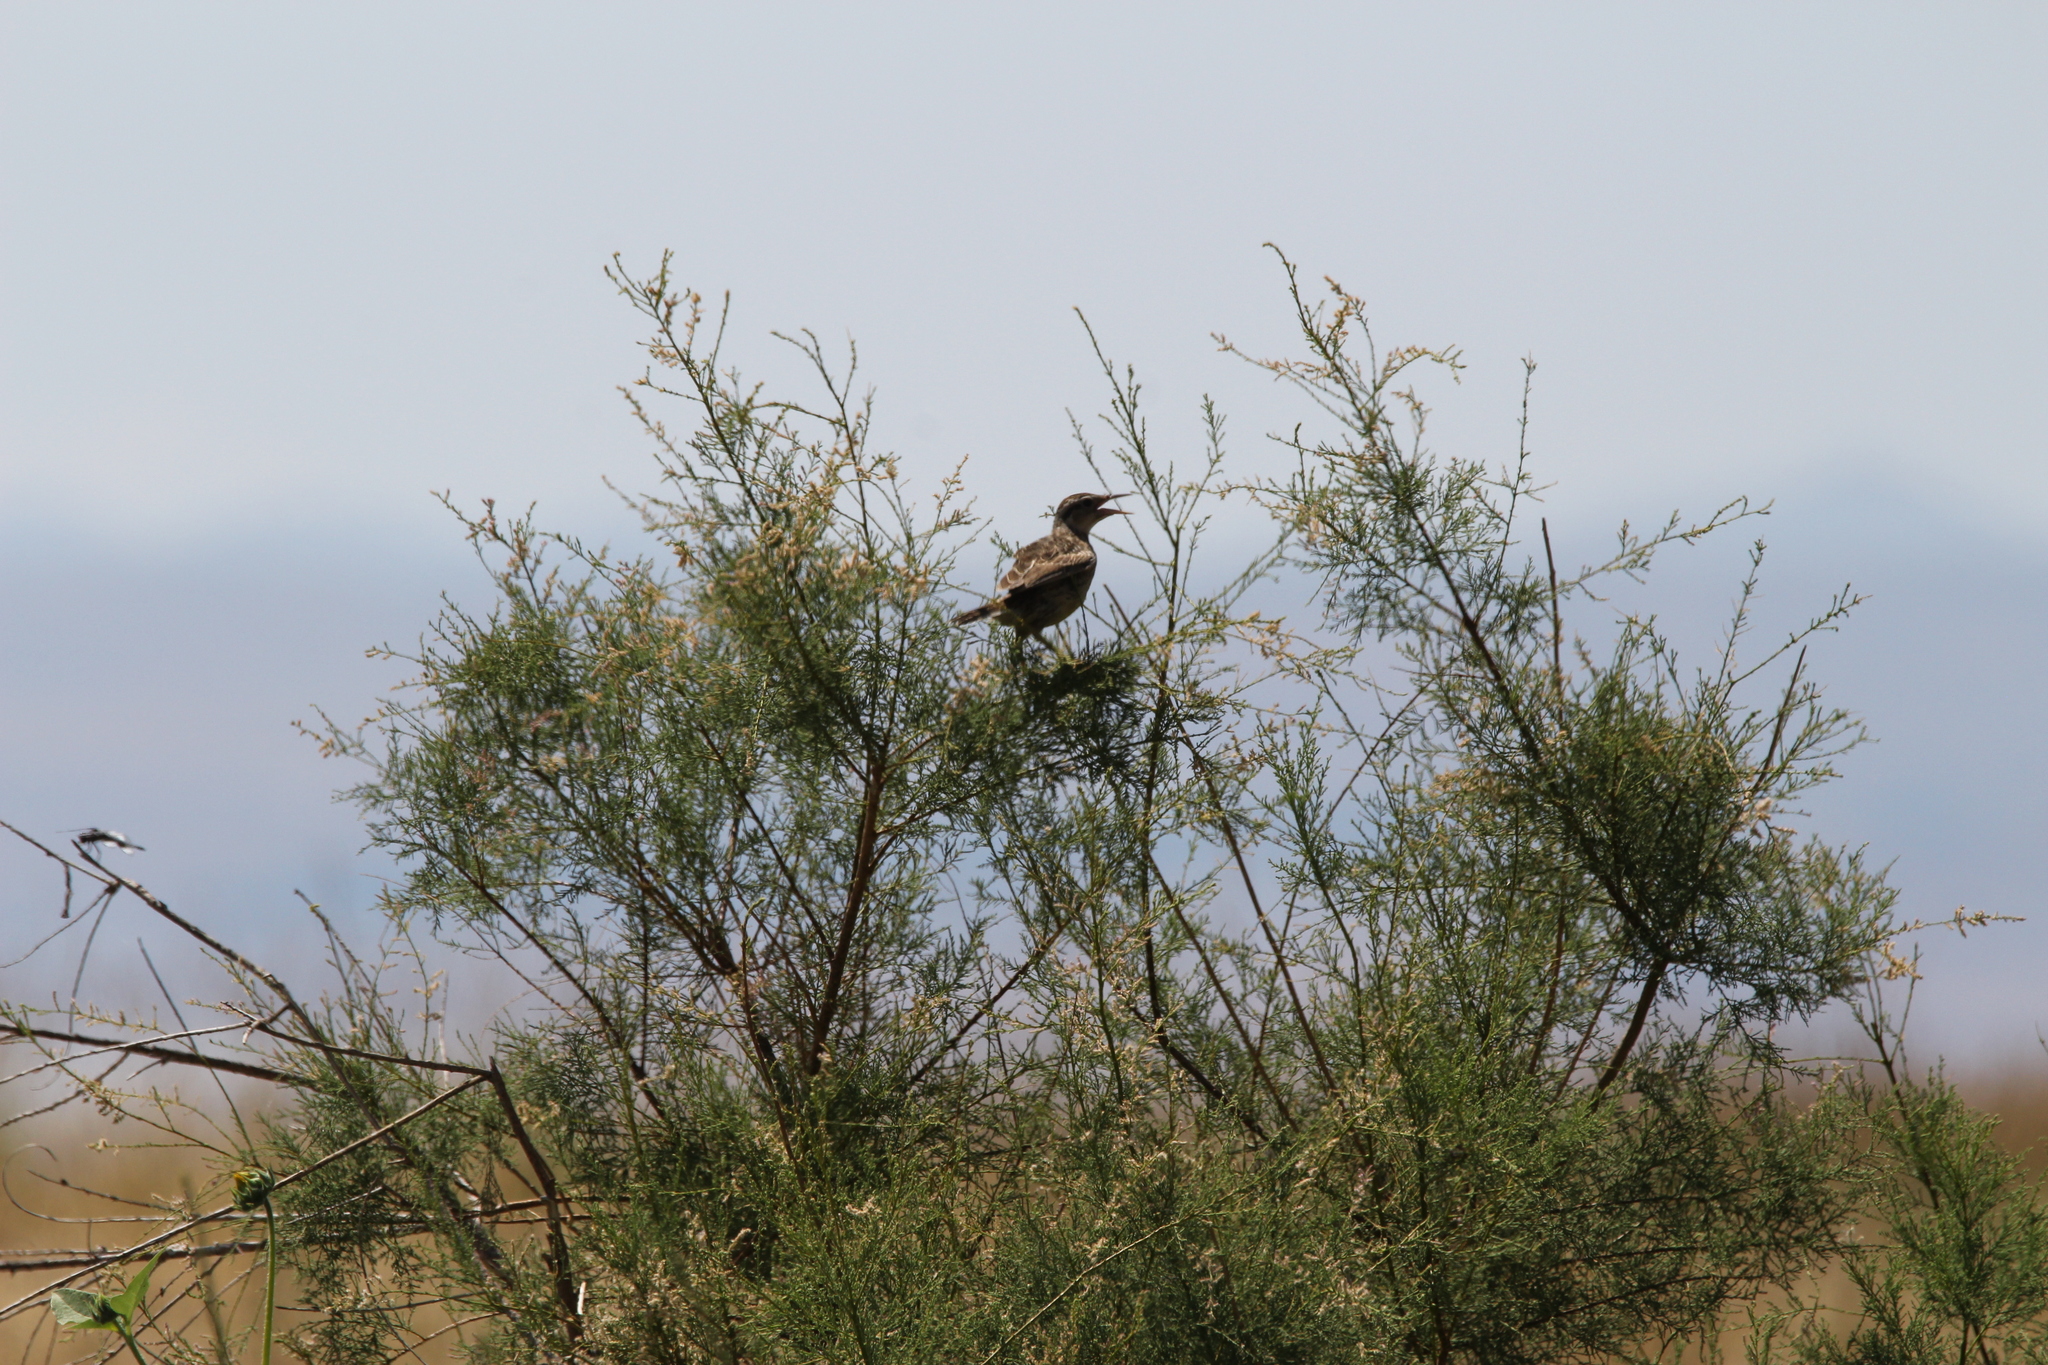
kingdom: Animalia
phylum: Chordata
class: Aves
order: Passeriformes
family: Icteridae
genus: Sturnella
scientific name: Sturnella neglecta
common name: Western meadowlark
